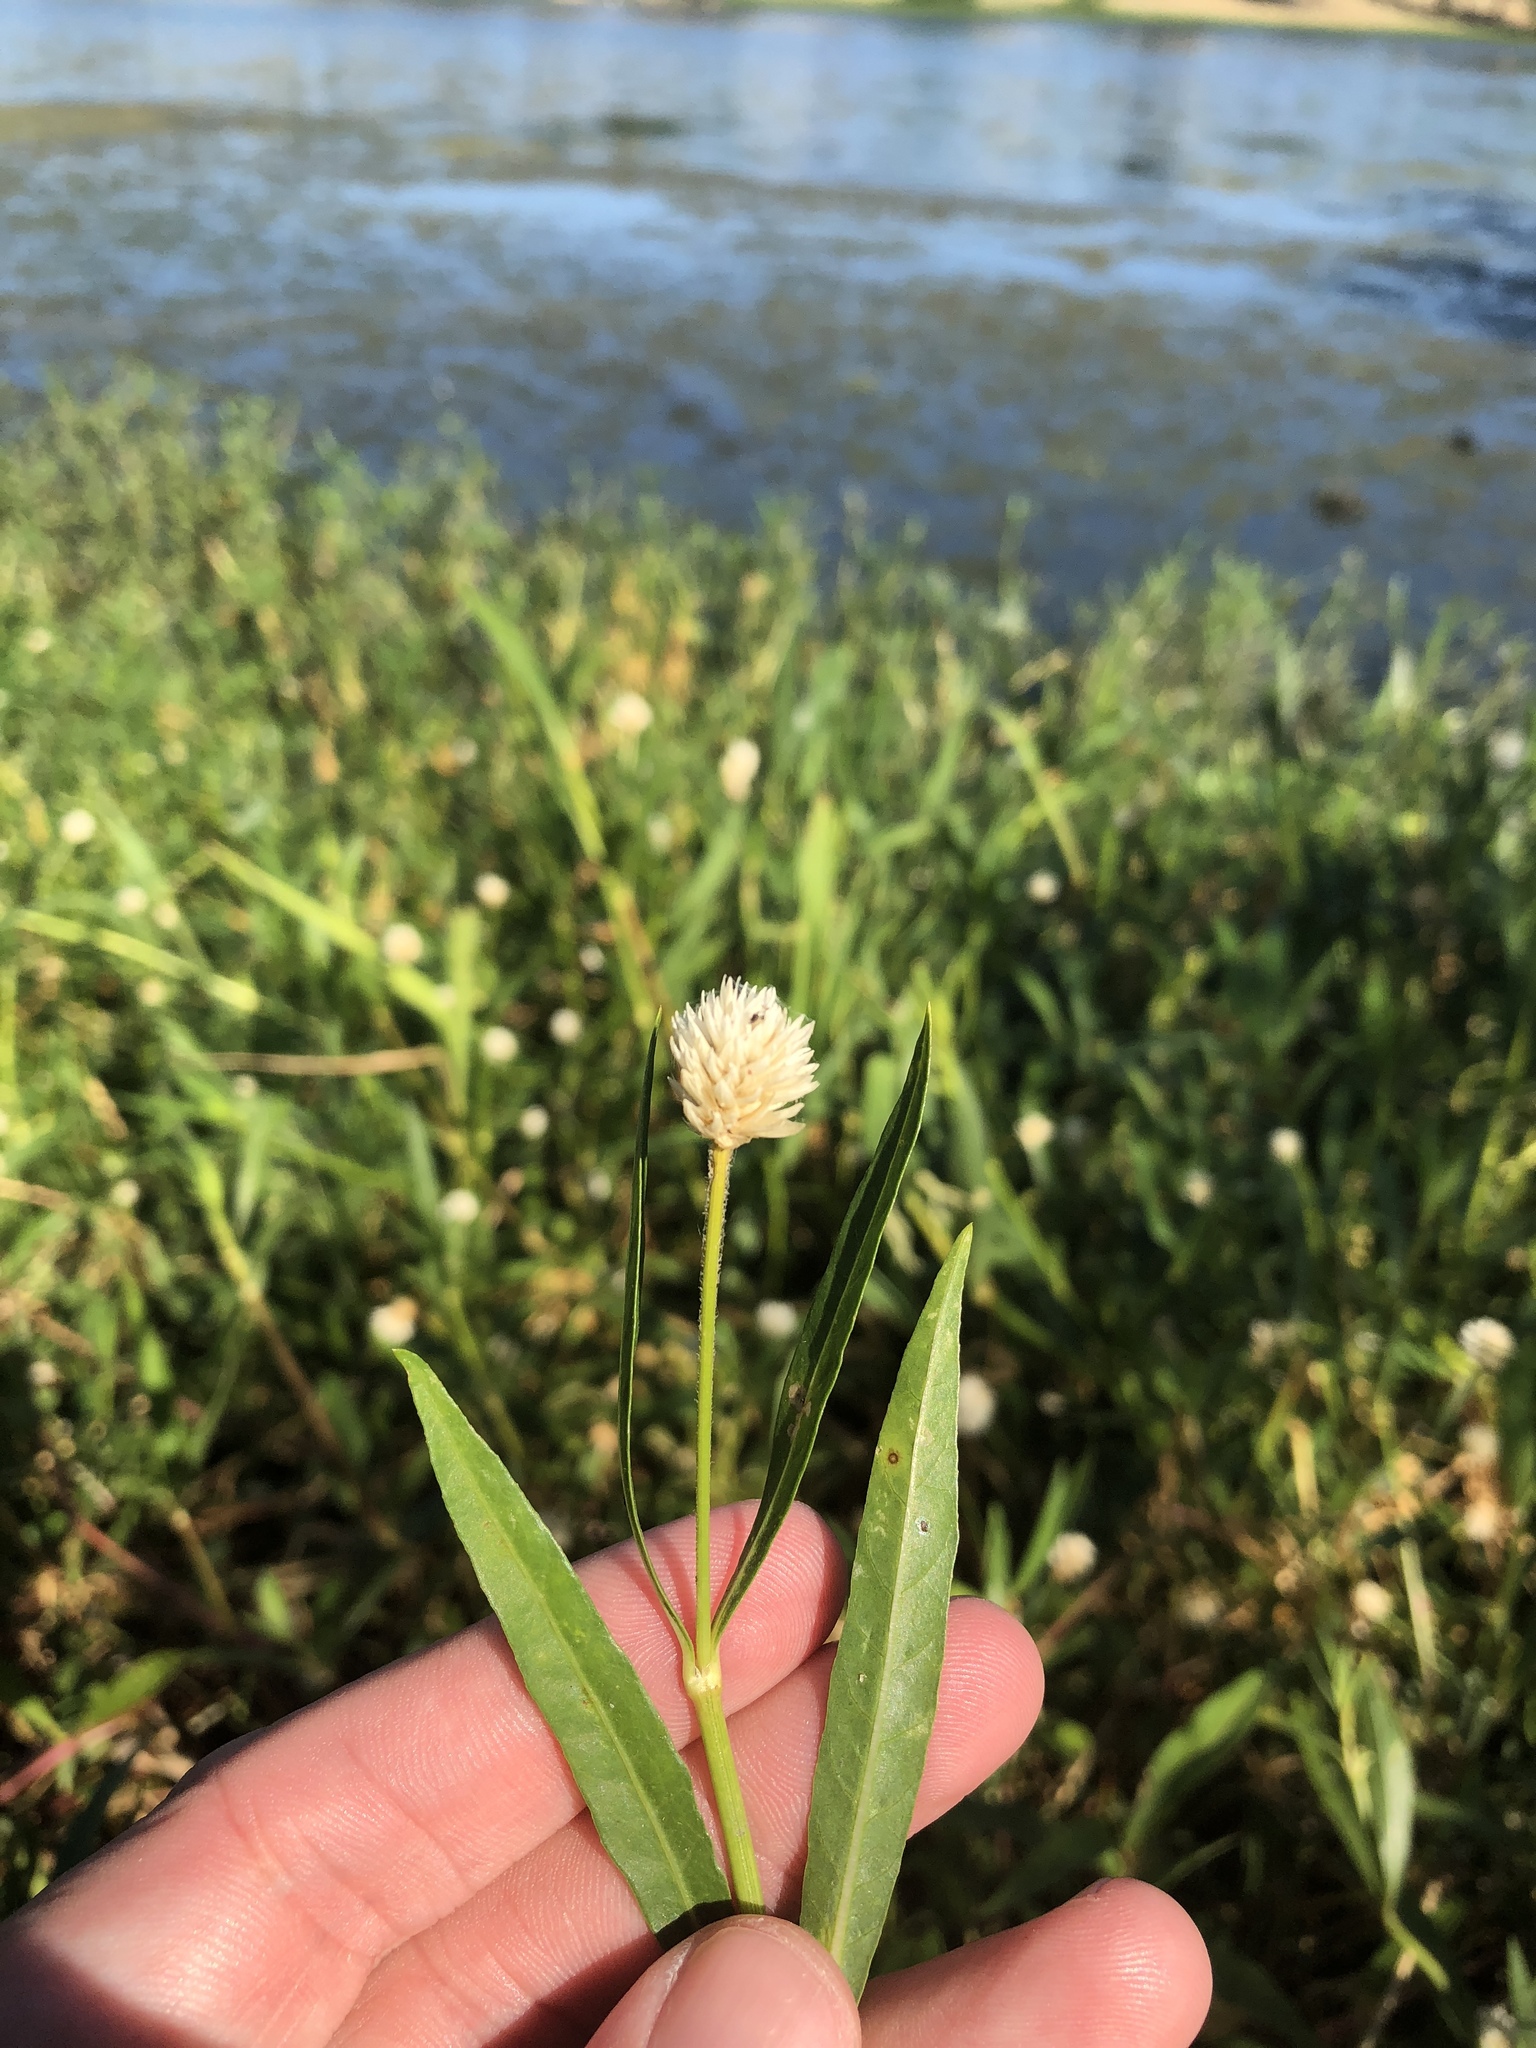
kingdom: Plantae
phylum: Tracheophyta
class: Magnoliopsida
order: Caryophyllales
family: Amaranthaceae
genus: Alternanthera
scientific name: Alternanthera philoxeroides
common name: Alligatorweed
